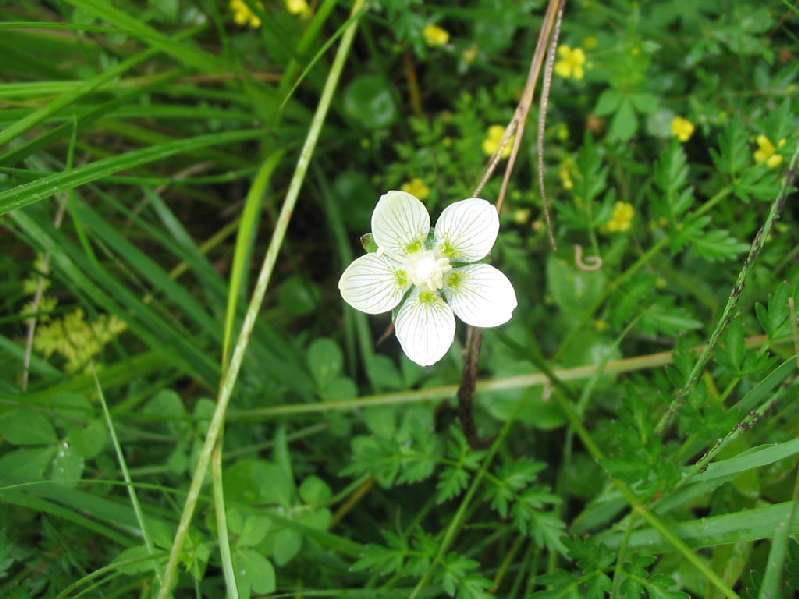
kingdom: Plantae
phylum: Tracheophyta
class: Magnoliopsida
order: Celastrales
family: Parnassiaceae
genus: Parnassia
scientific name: Parnassia palustris
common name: Grass-of-parnassus
